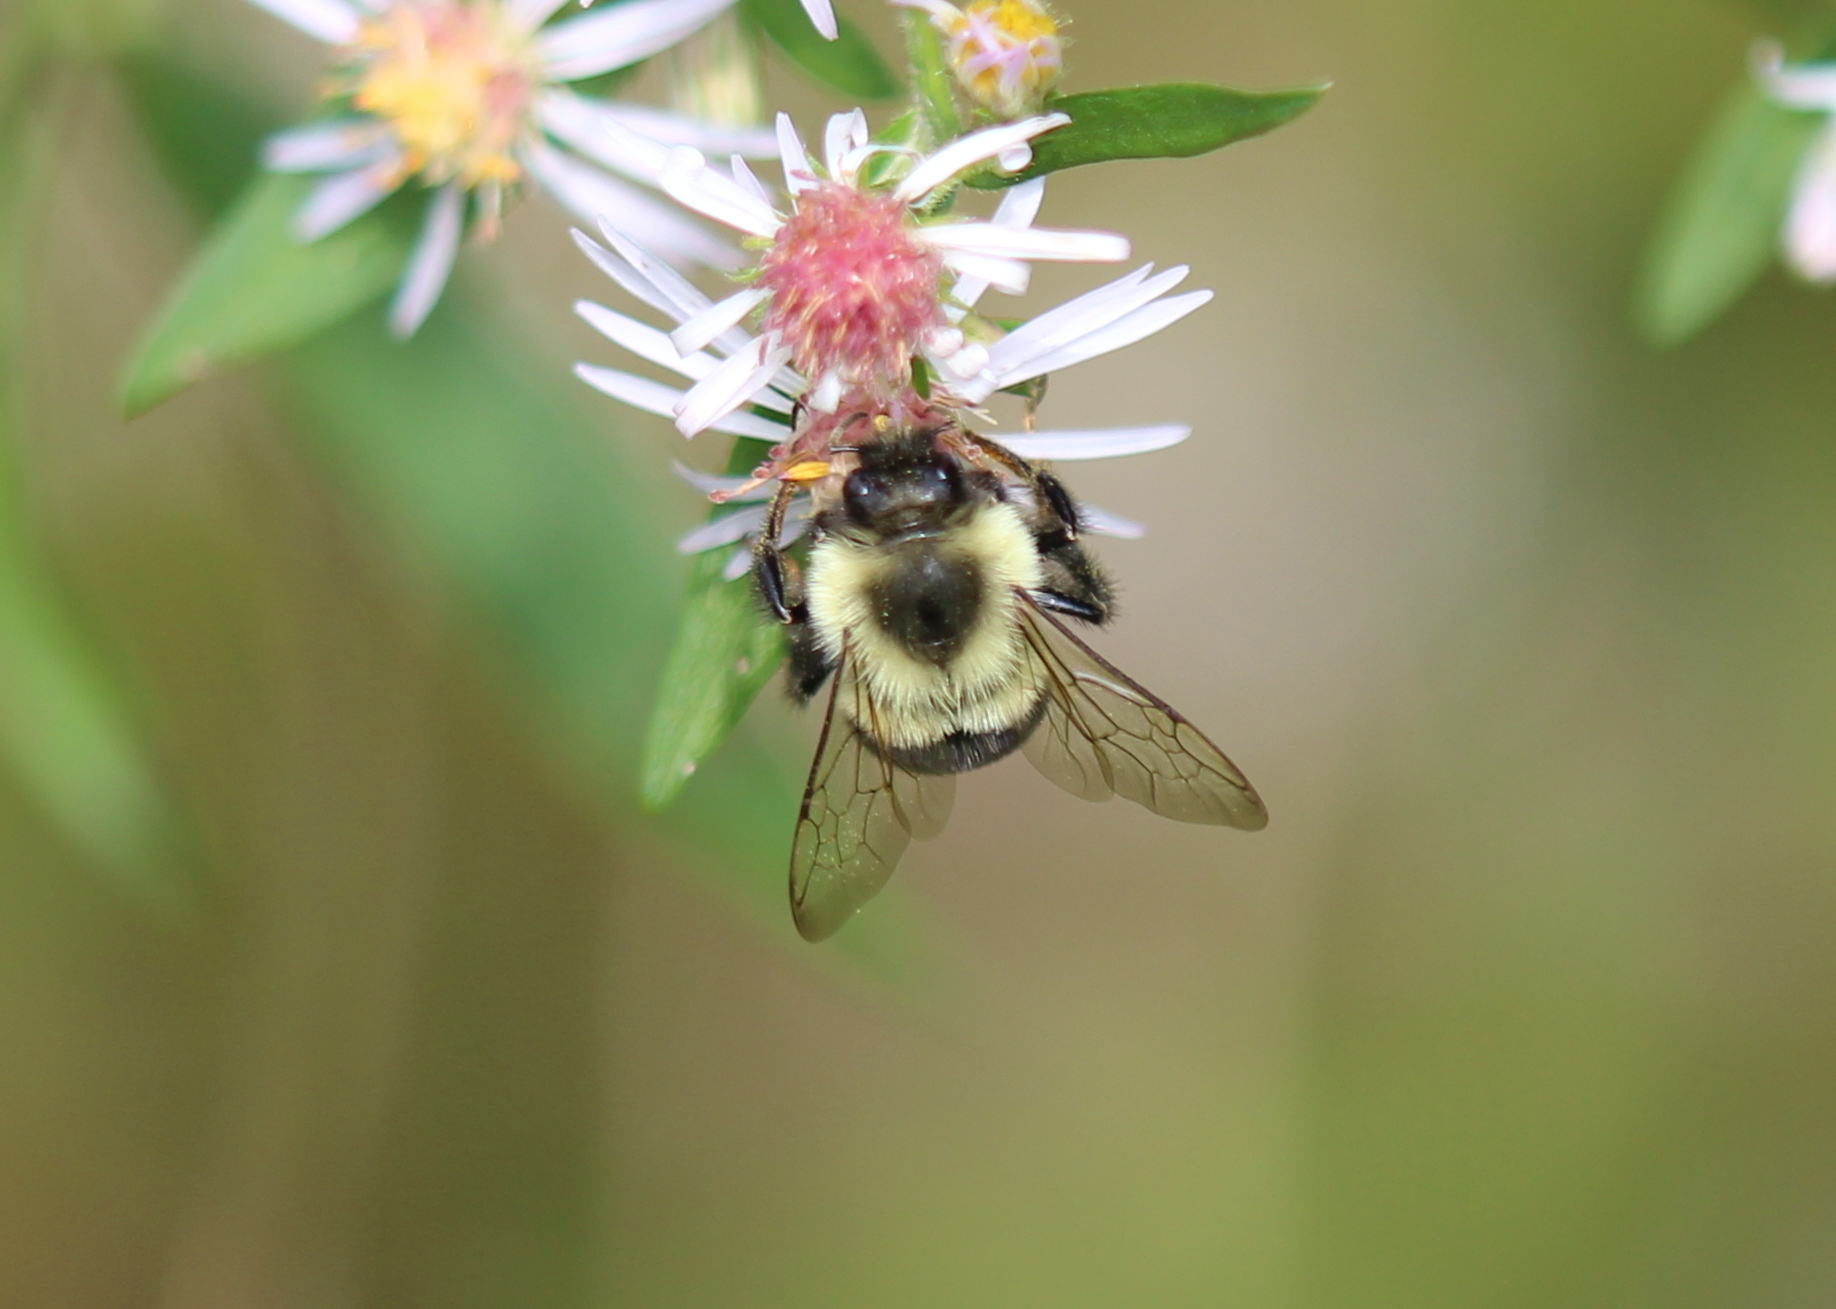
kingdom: Animalia
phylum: Arthropoda
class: Insecta
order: Hymenoptera
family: Apidae
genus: Bombus
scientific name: Bombus impatiens
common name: Common eastern bumble bee
